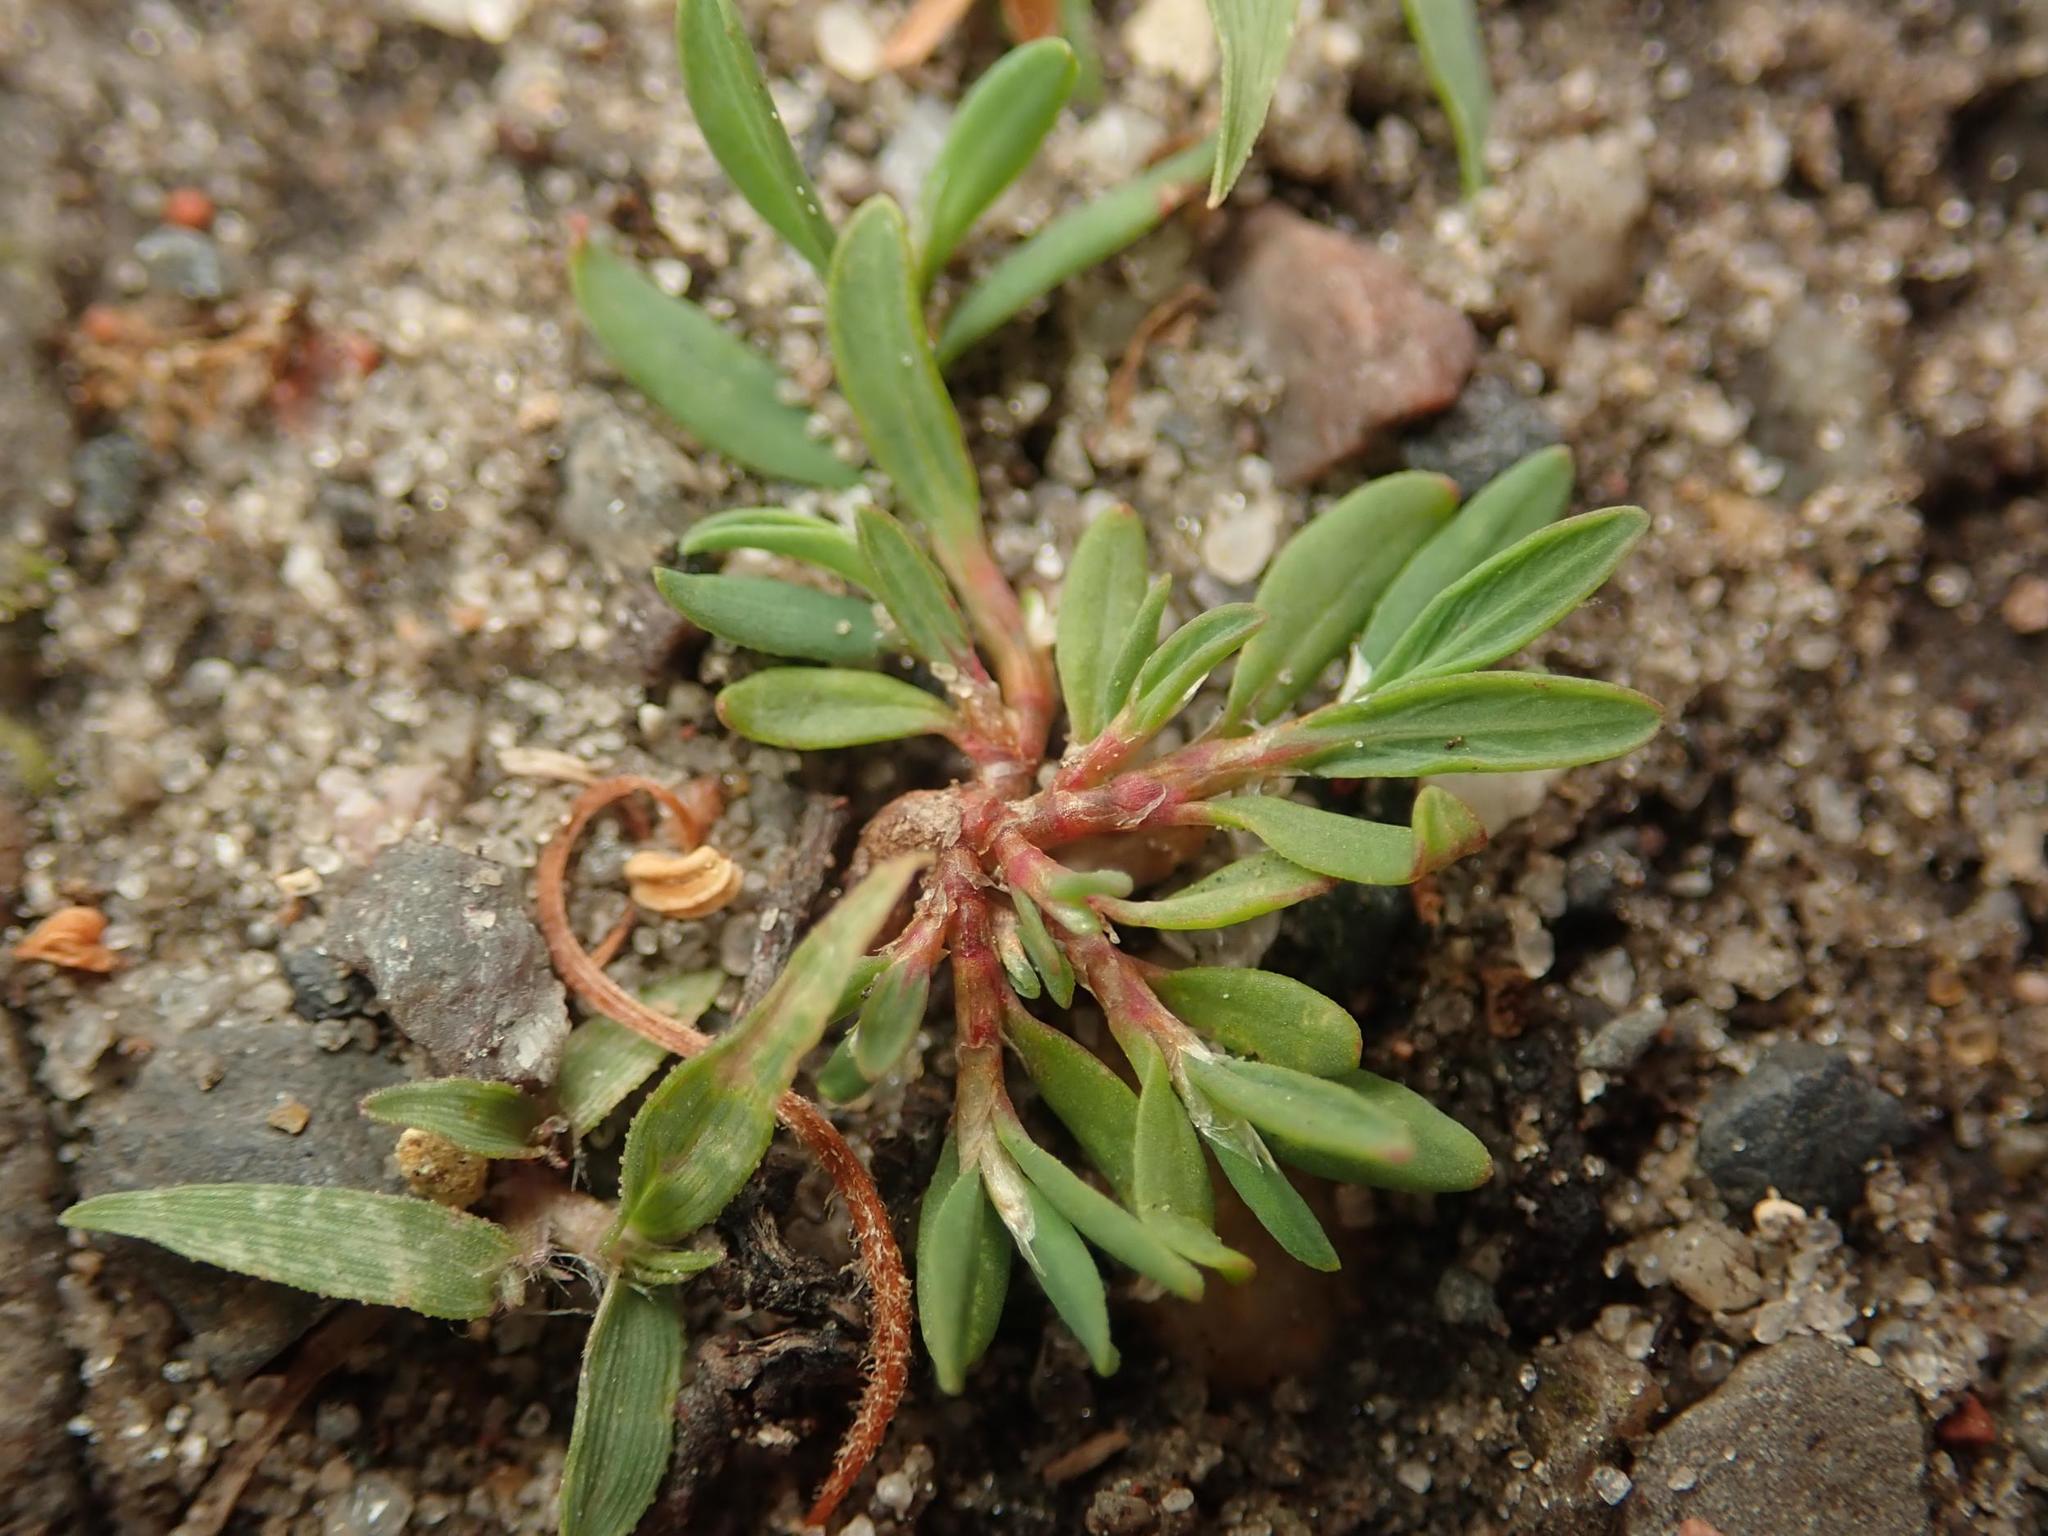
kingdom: Plantae
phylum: Tracheophyta
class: Magnoliopsida
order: Caryophyllales
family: Polygonaceae
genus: Polygonum
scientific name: Polygonum arenastrum
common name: Equal-leaved knotgrass
